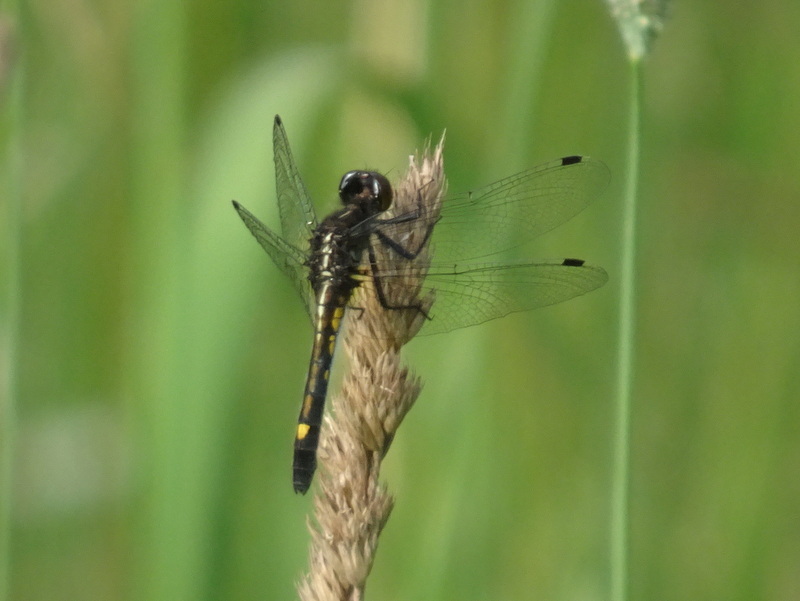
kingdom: Animalia
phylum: Arthropoda
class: Insecta
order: Odonata
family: Libellulidae
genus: Leucorrhinia
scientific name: Leucorrhinia intacta
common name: Dot-tailed whiteface
